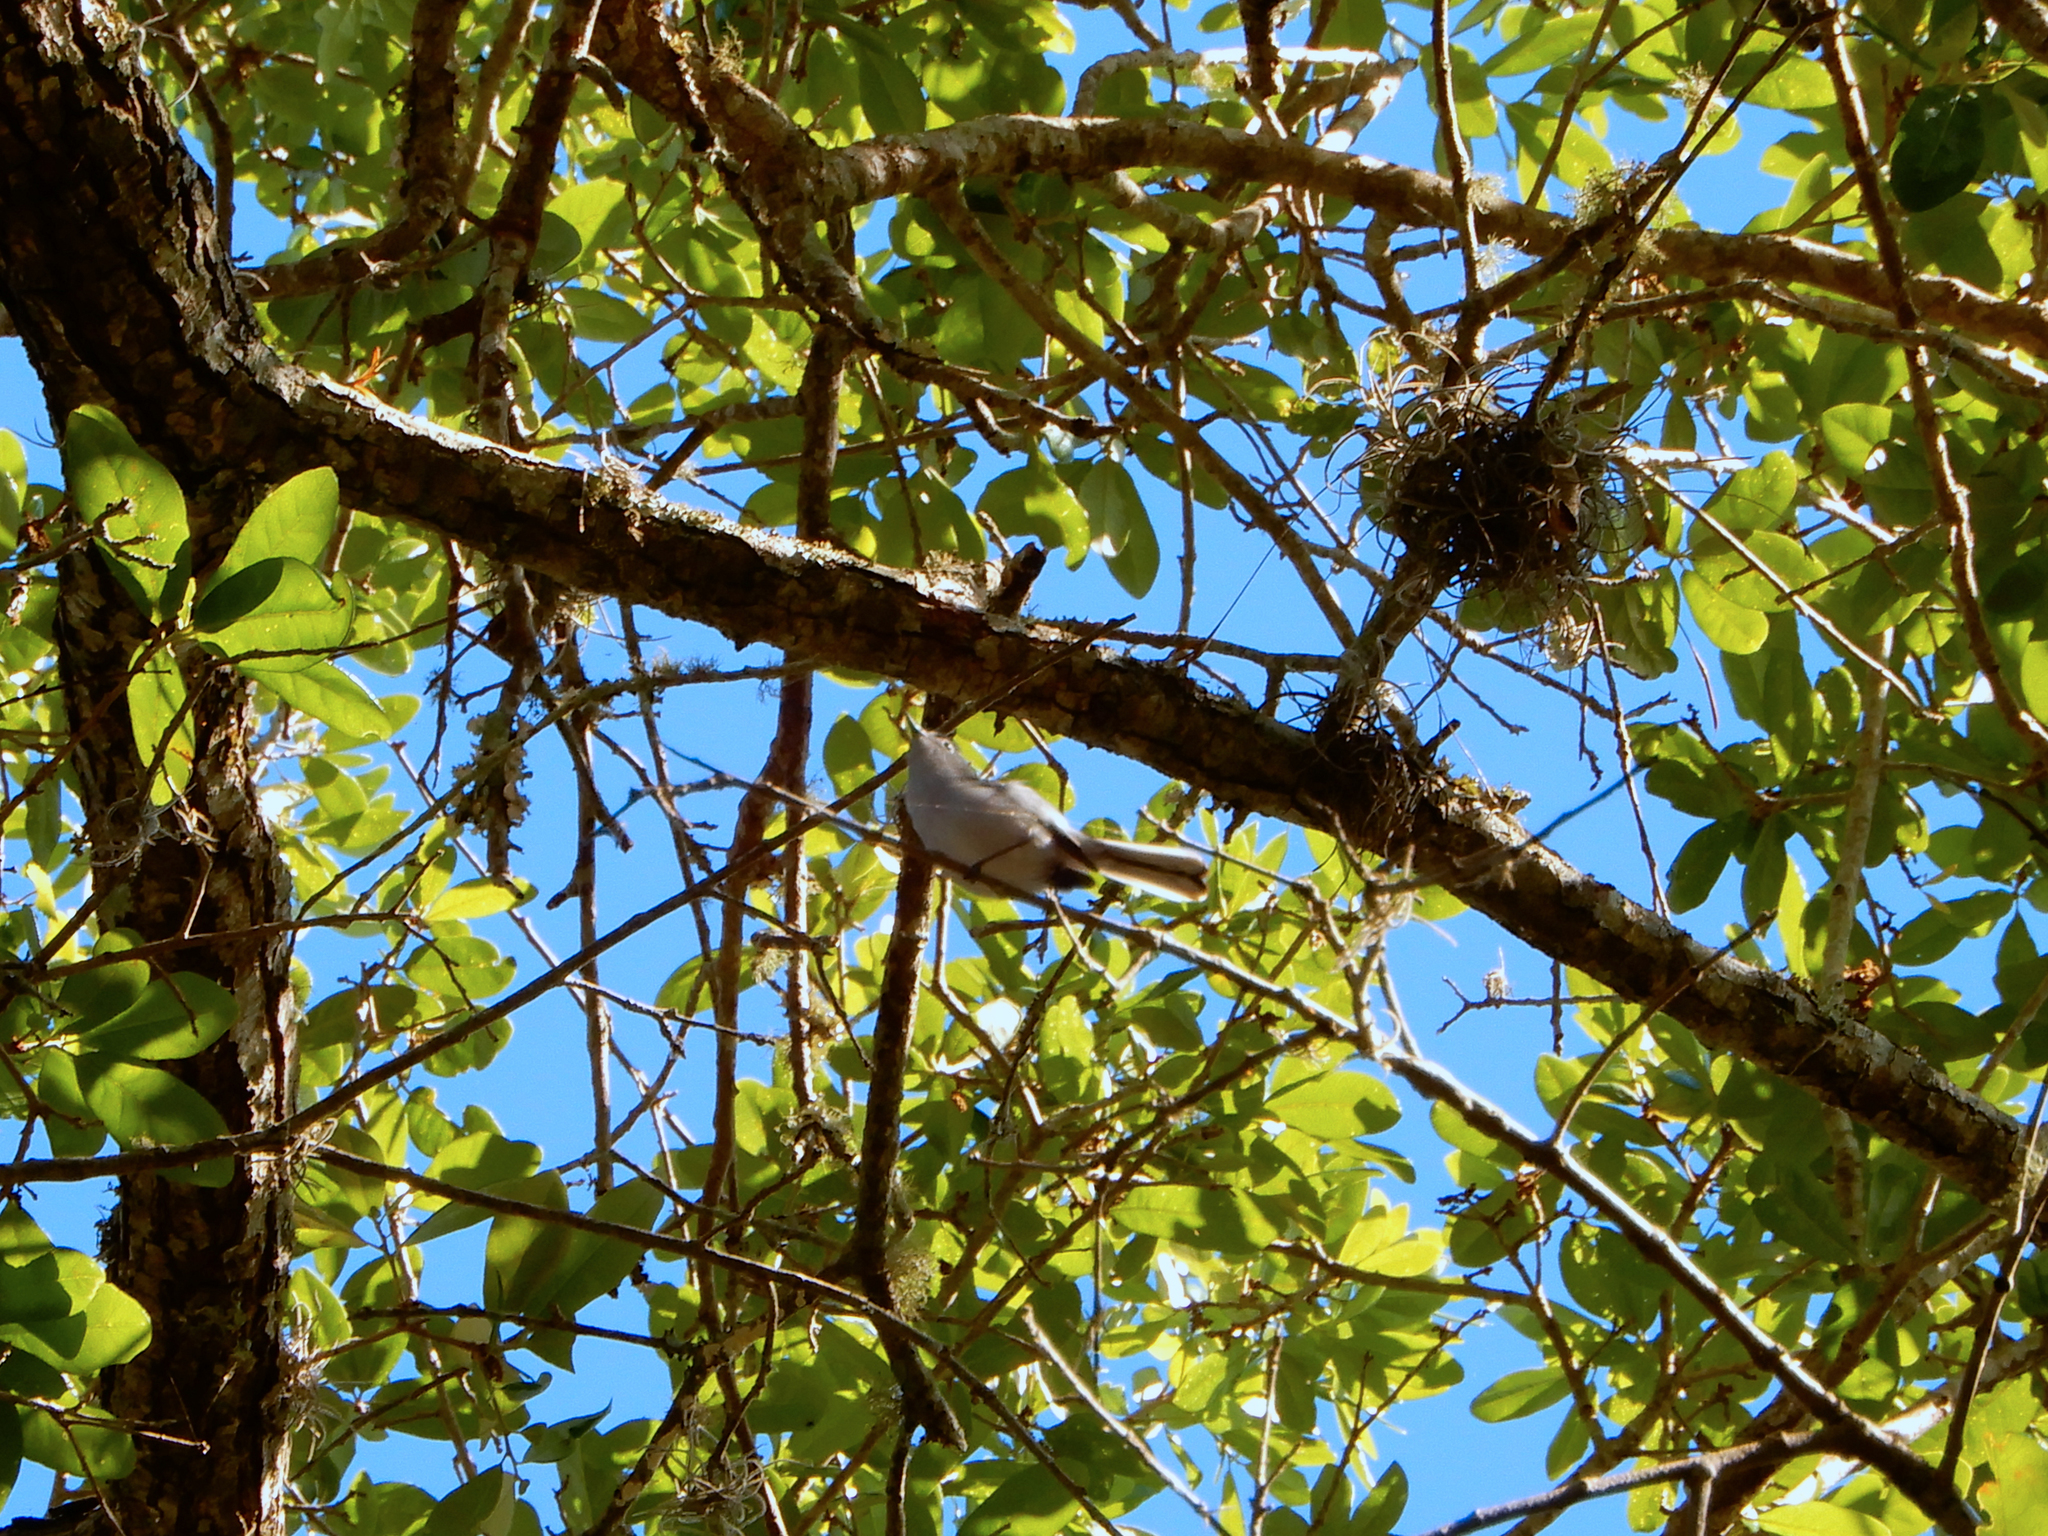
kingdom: Animalia
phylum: Chordata
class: Aves
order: Passeriformes
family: Polioptilidae
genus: Polioptila
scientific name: Polioptila caerulea
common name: Blue-gray gnatcatcher
